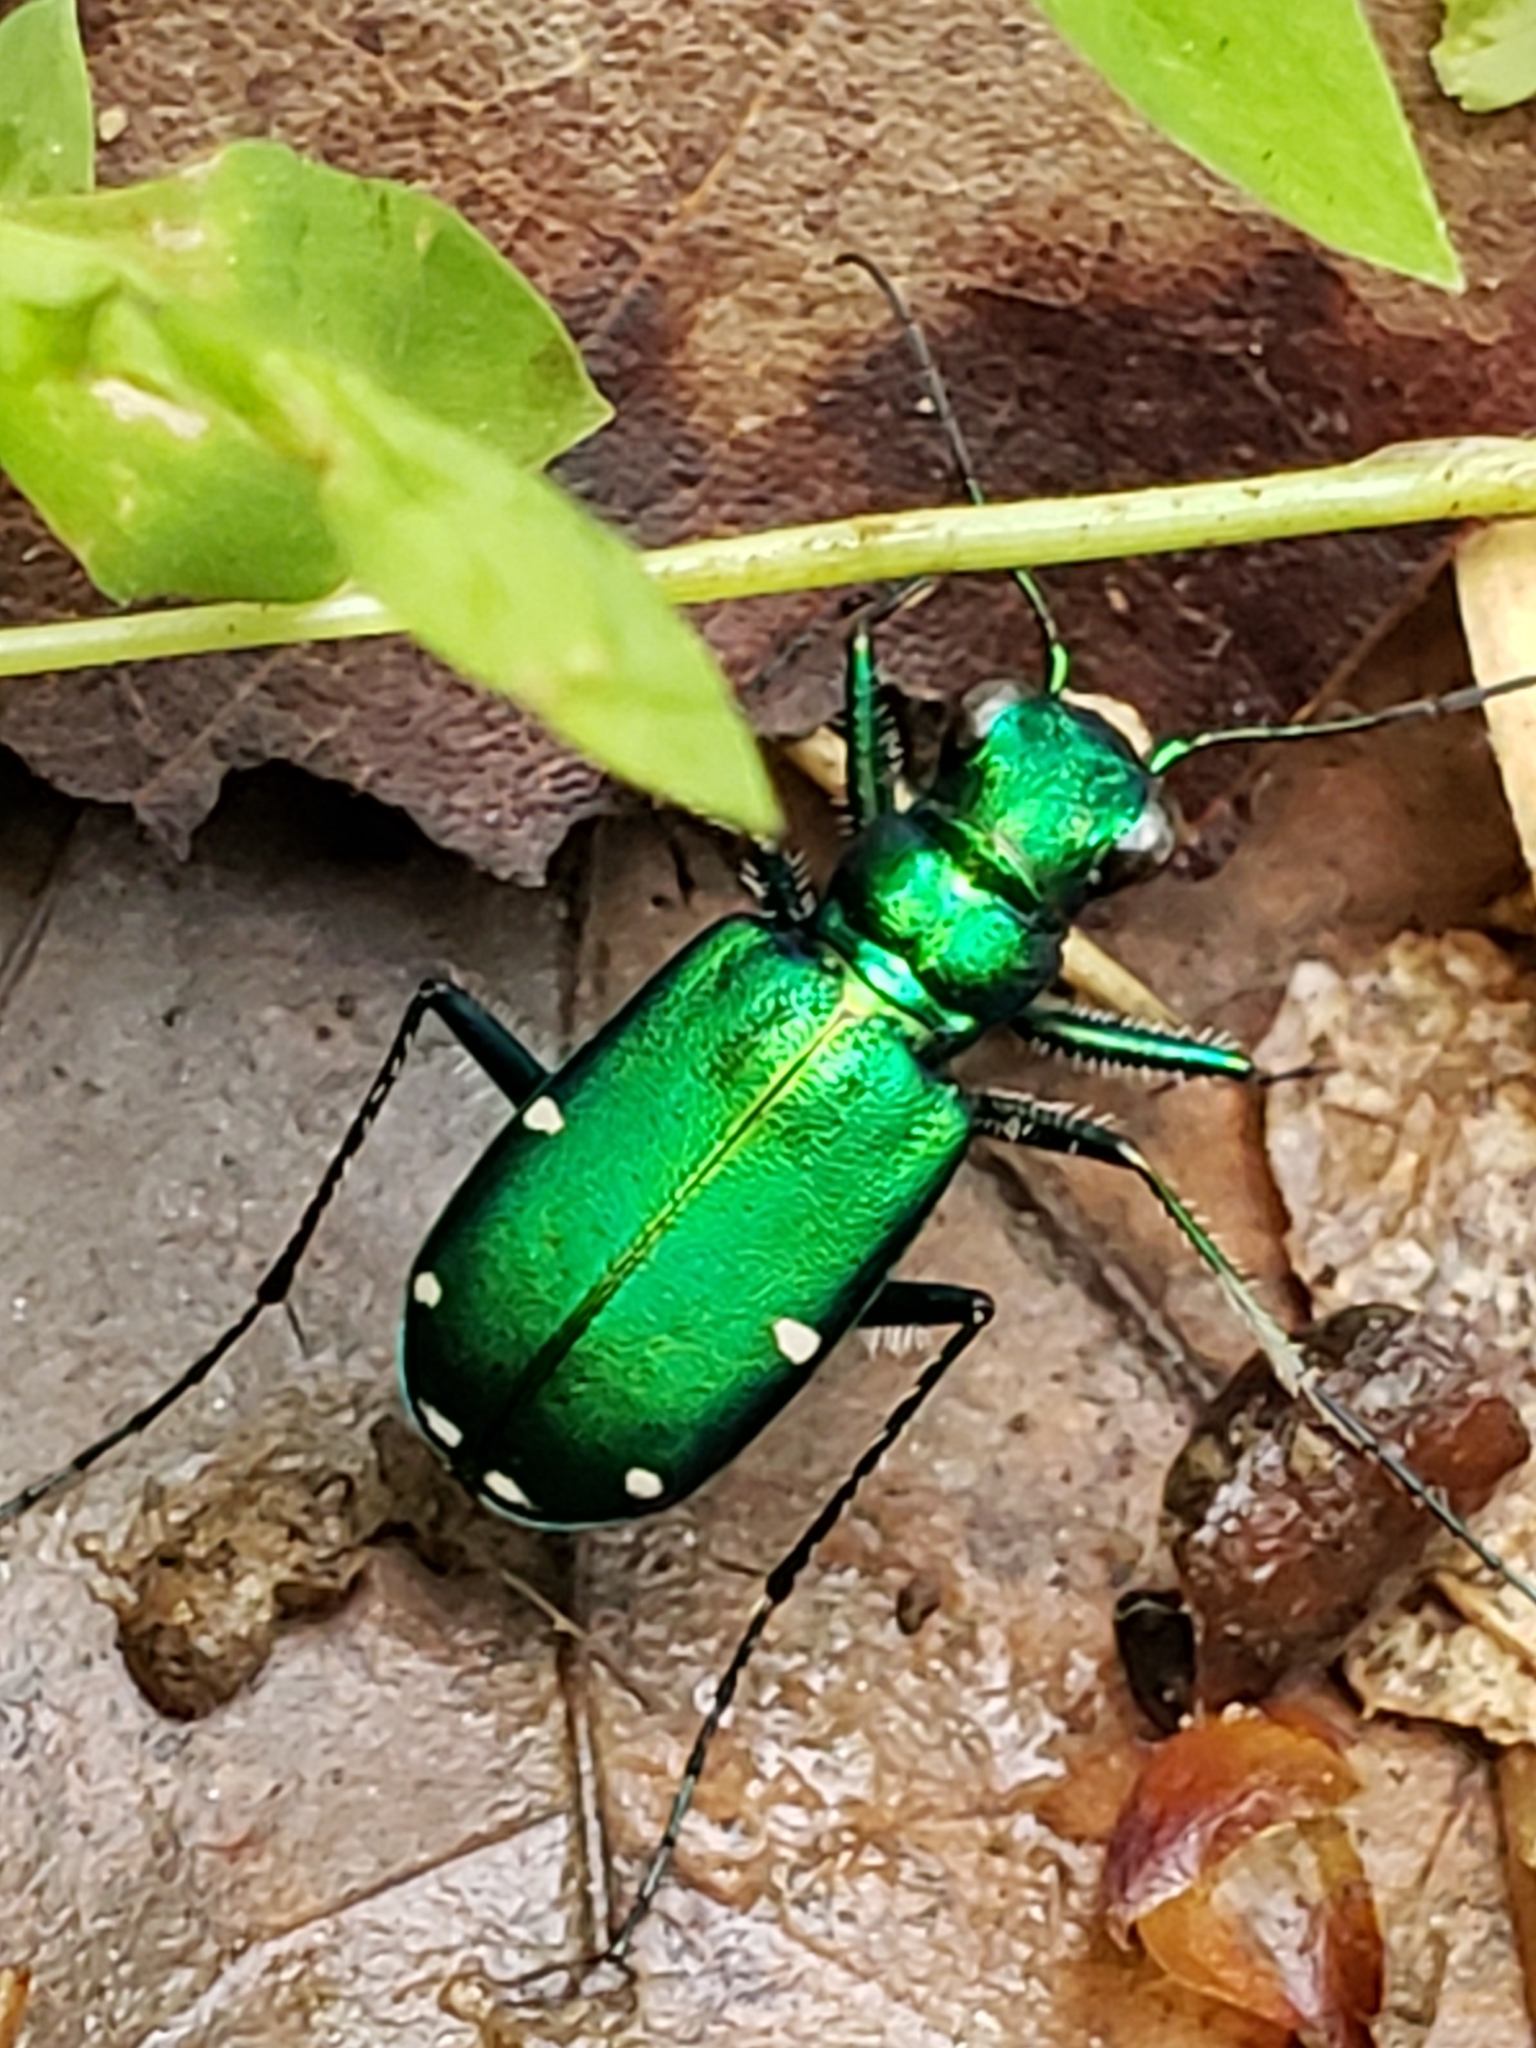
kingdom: Animalia
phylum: Arthropoda
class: Insecta
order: Coleoptera
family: Carabidae
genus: Cicindela
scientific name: Cicindela sexguttata
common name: Six-spotted tiger beetle
